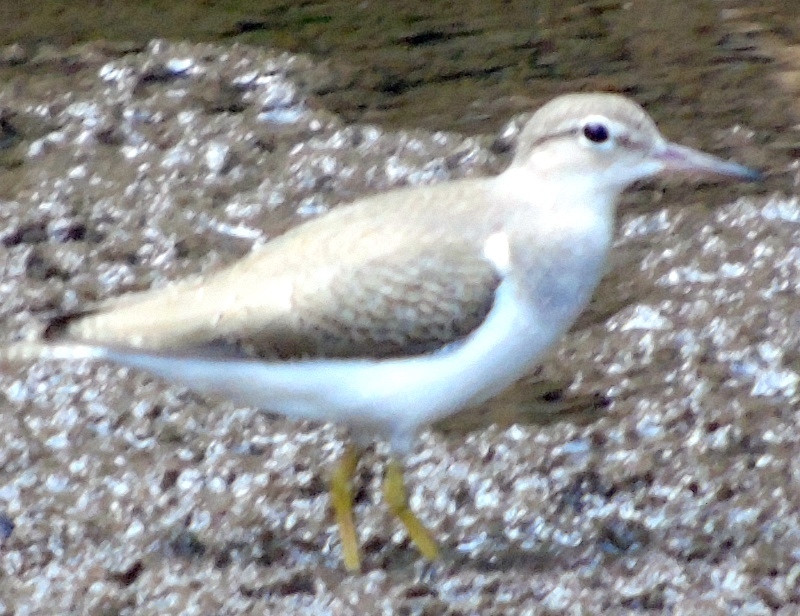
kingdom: Animalia
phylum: Chordata
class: Aves
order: Charadriiformes
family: Scolopacidae
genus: Actitis
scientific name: Actitis macularius
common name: Spotted sandpiper
